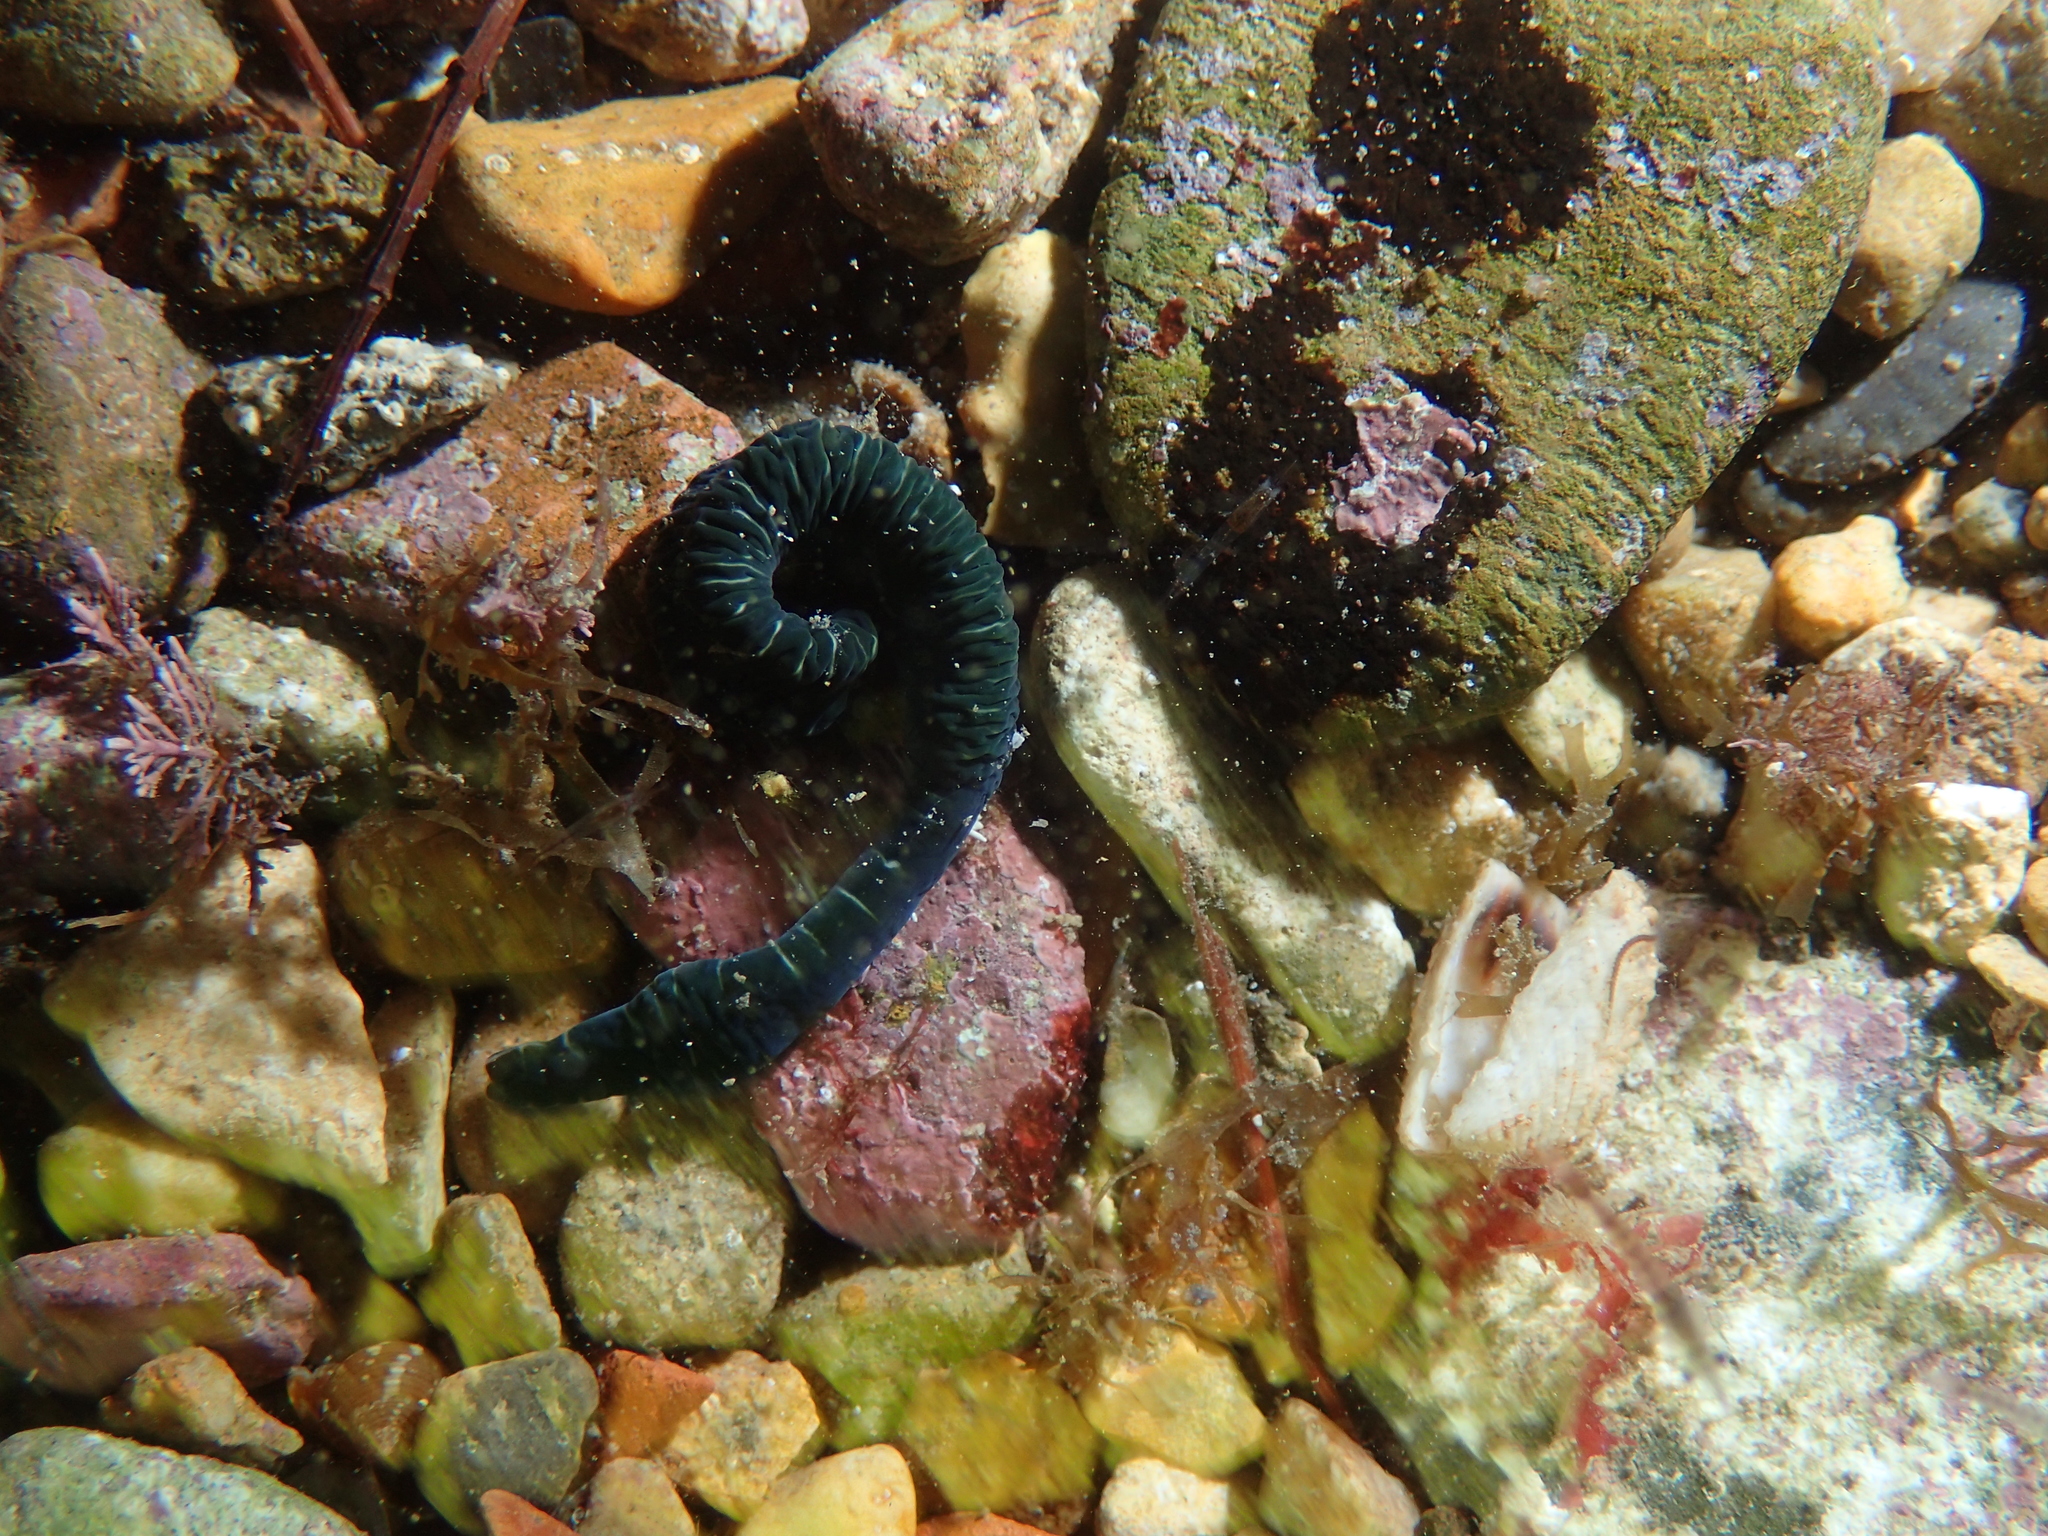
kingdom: Animalia
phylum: Nemertea
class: Pilidiophora
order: Heteronemertea
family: Lineidae
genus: Notospermus
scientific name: Notospermus geniculatus
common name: Banded bootlace
